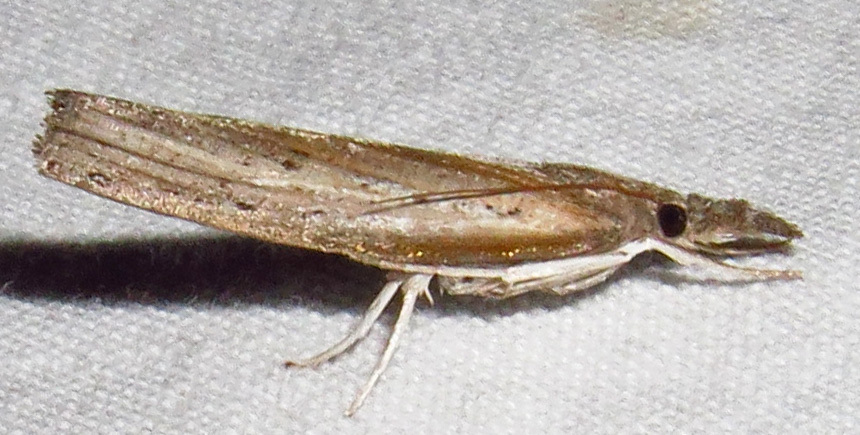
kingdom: Animalia
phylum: Arthropoda
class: Insecta
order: Lepidoptera
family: Crambidae
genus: Fissicrambus
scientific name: Fissicrambus mutabilis
